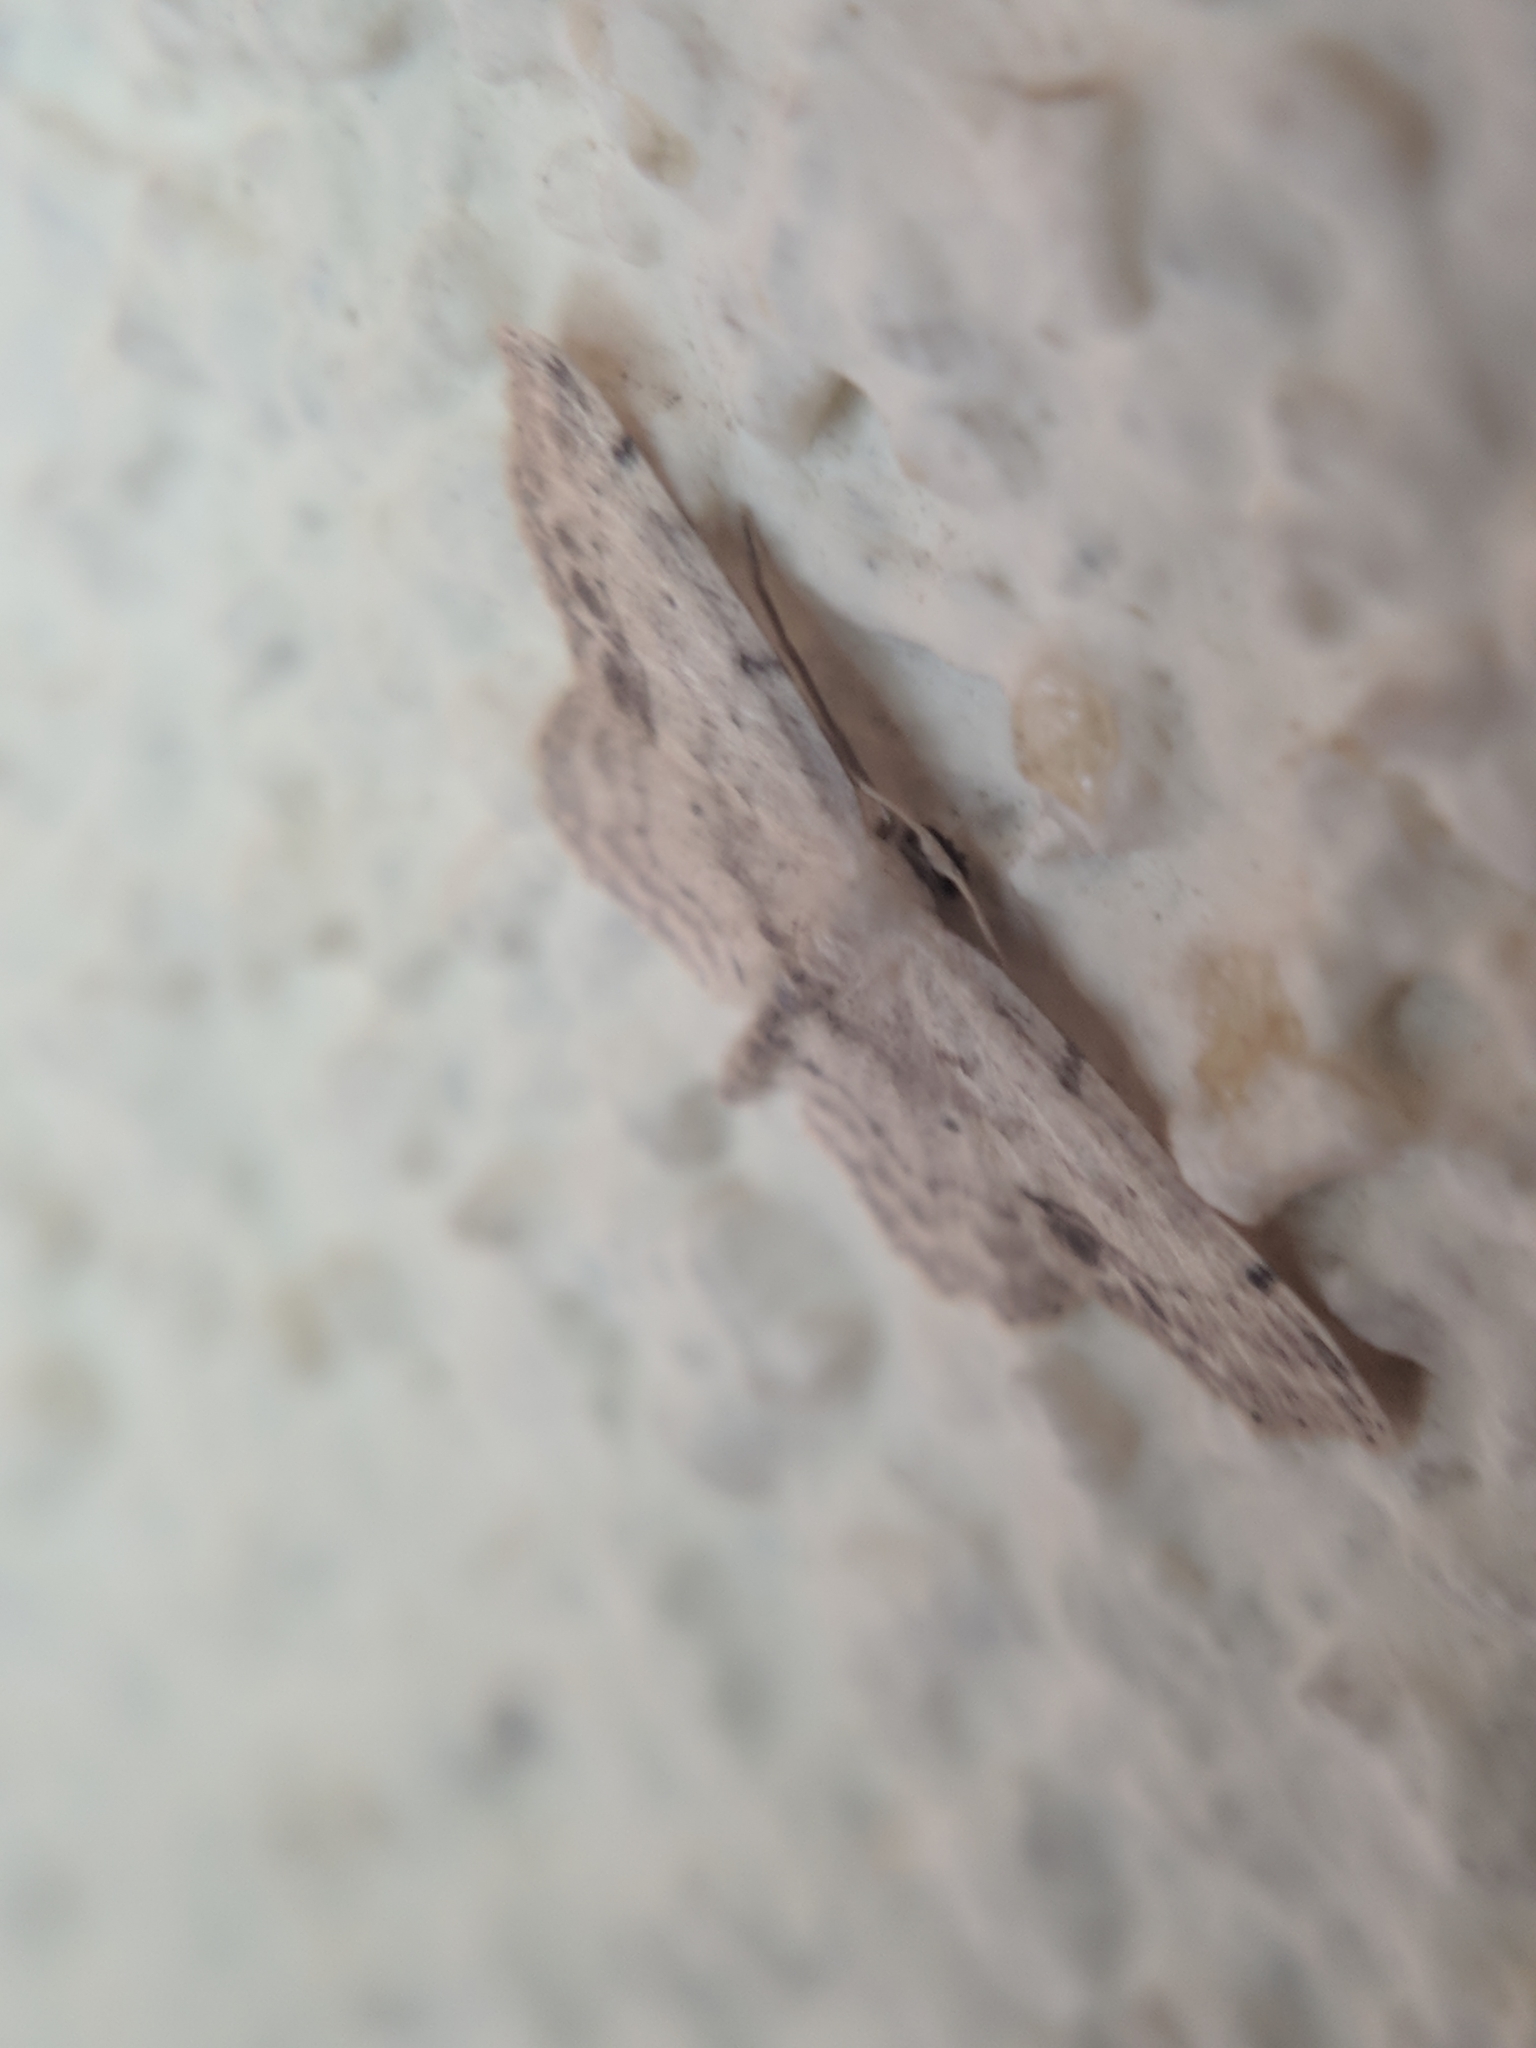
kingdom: Animalia
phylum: Arthropoda
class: Insecta
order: Lepidoptera
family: Geometridae
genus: Idaea
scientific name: Idaea dimidiata
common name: Single-dotted wave
